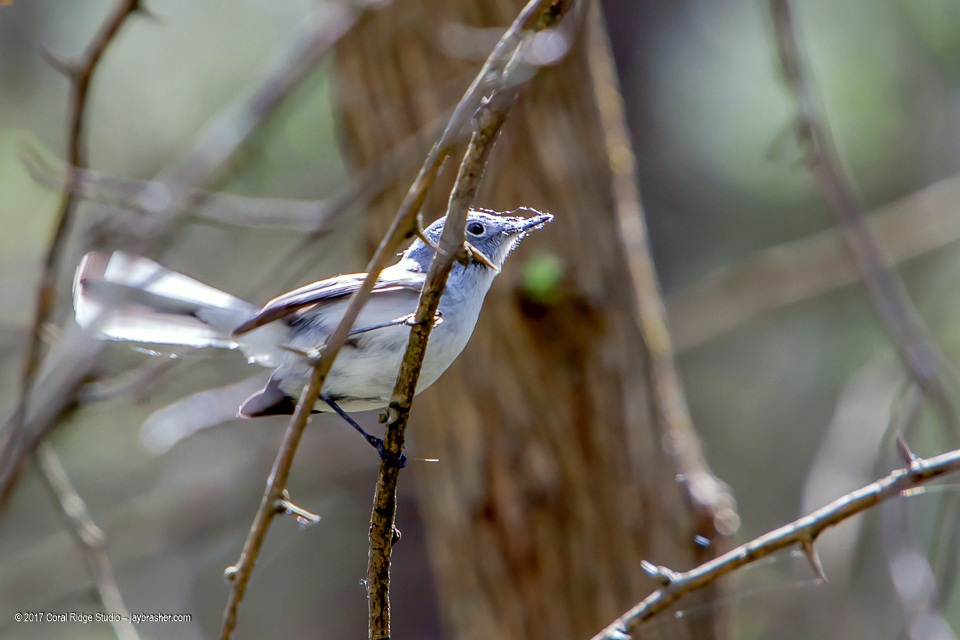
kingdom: Animalia
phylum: Chordata
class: Aves
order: Passeriformes
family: Polioptilidae
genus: Polioptila
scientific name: Polioptila caerulea
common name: Blue-gray gnatcatcher
